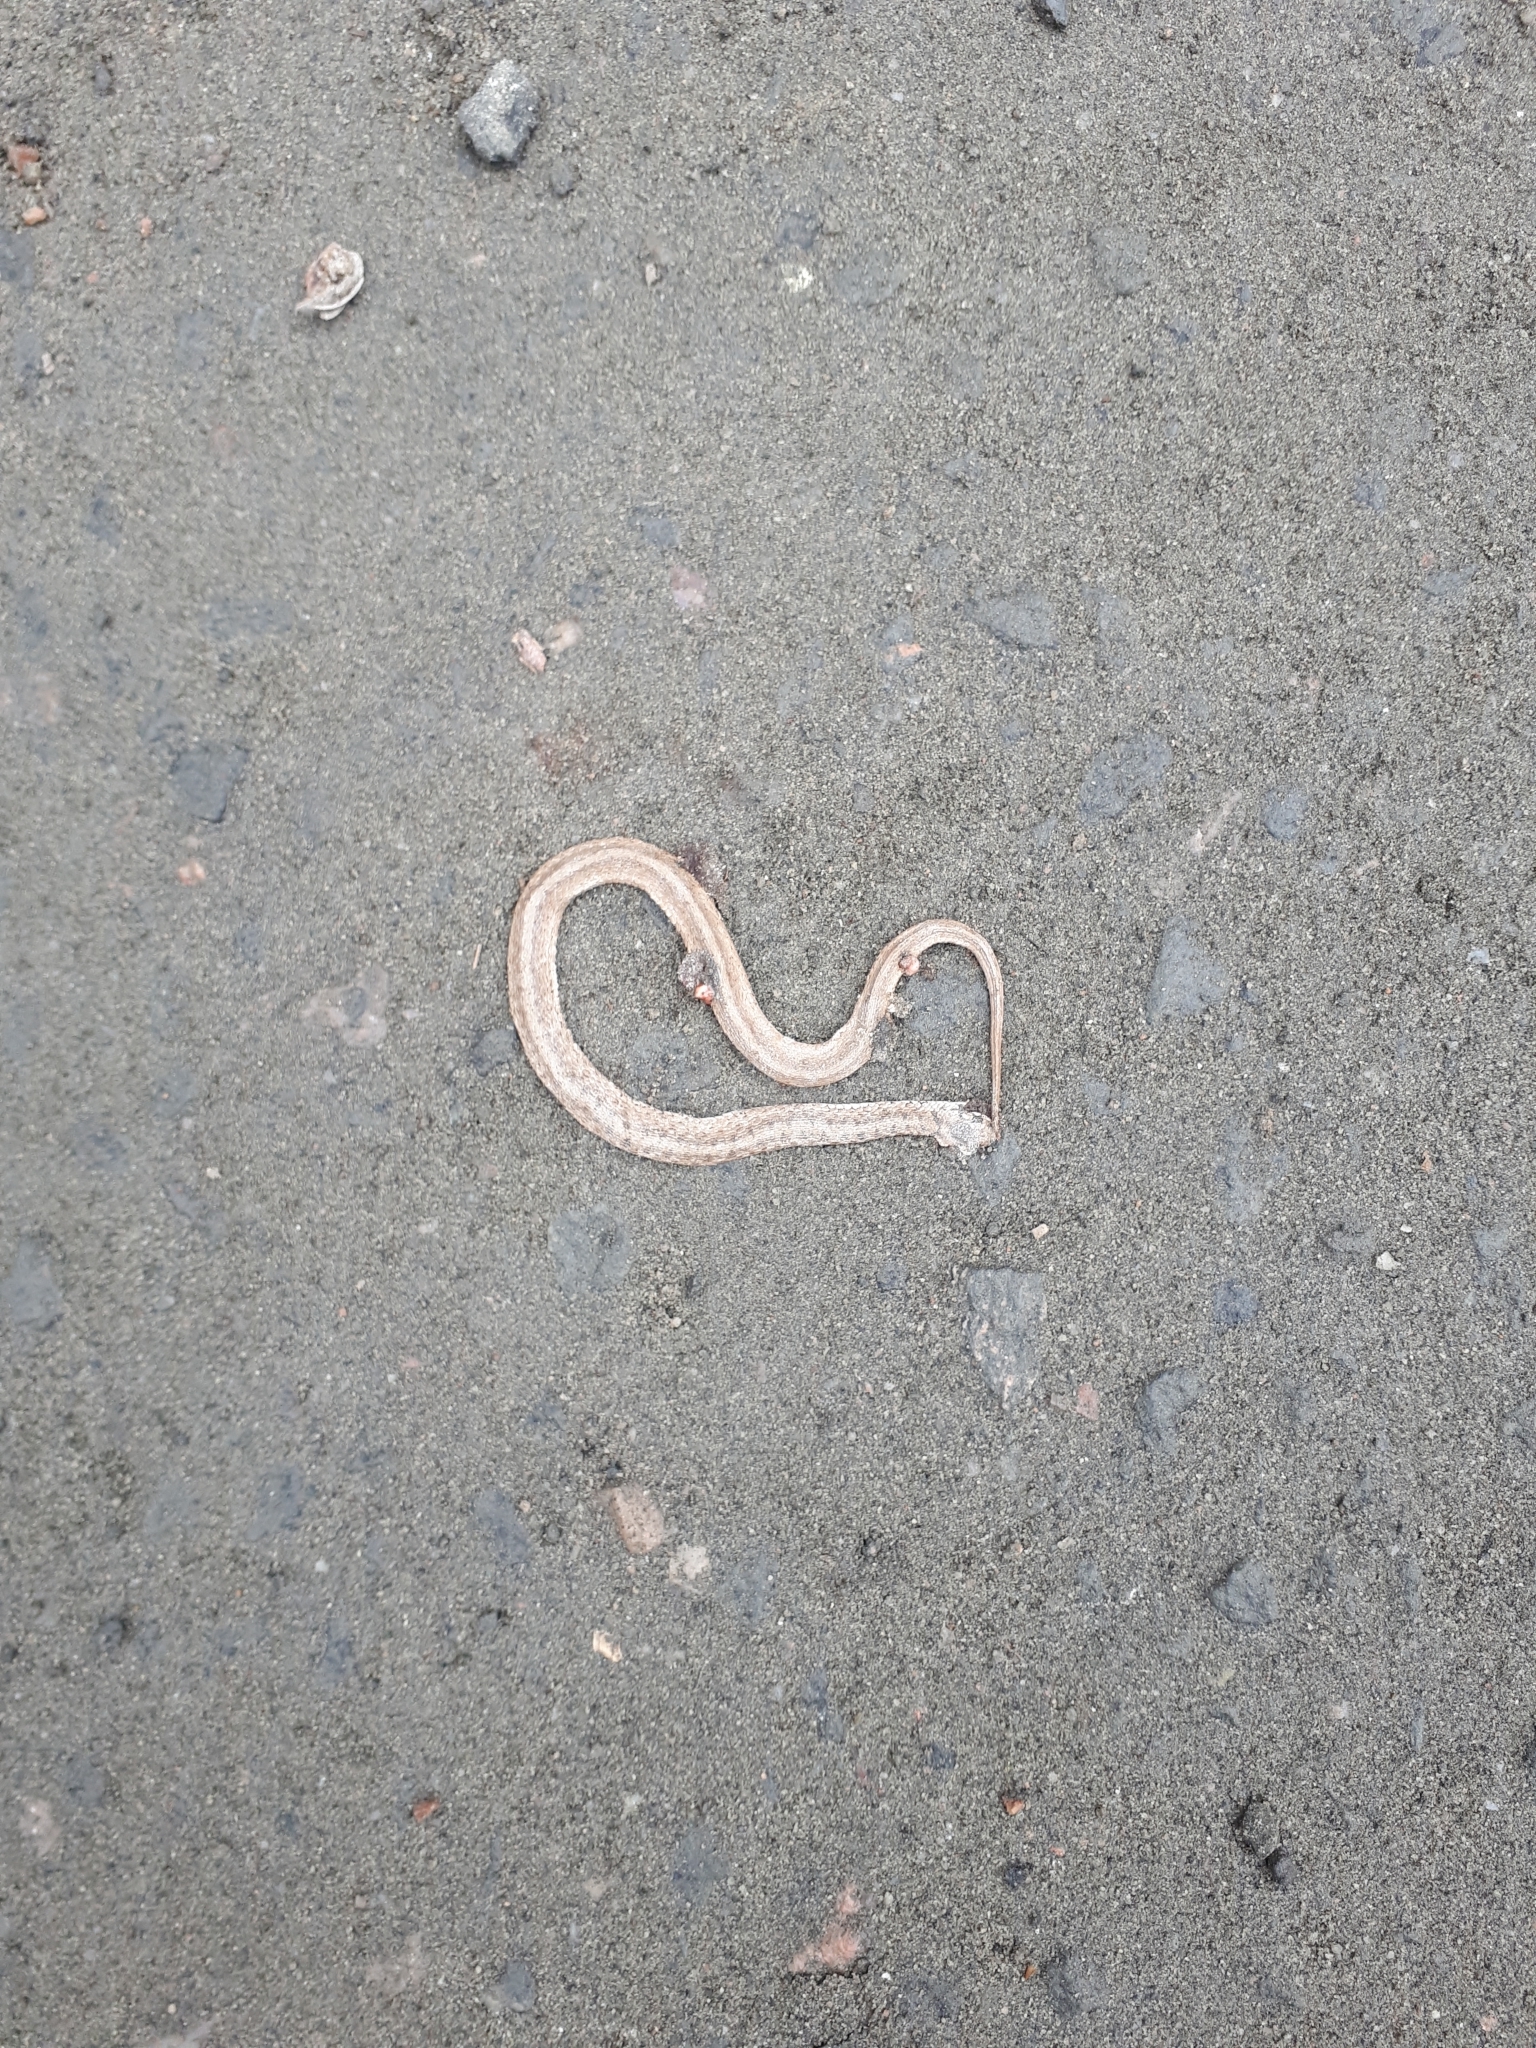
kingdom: Animalia
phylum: Chordata
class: Squamata
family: Colubridae
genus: Storeria
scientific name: Storeria dekayi
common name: (dekay’s) brown snake
